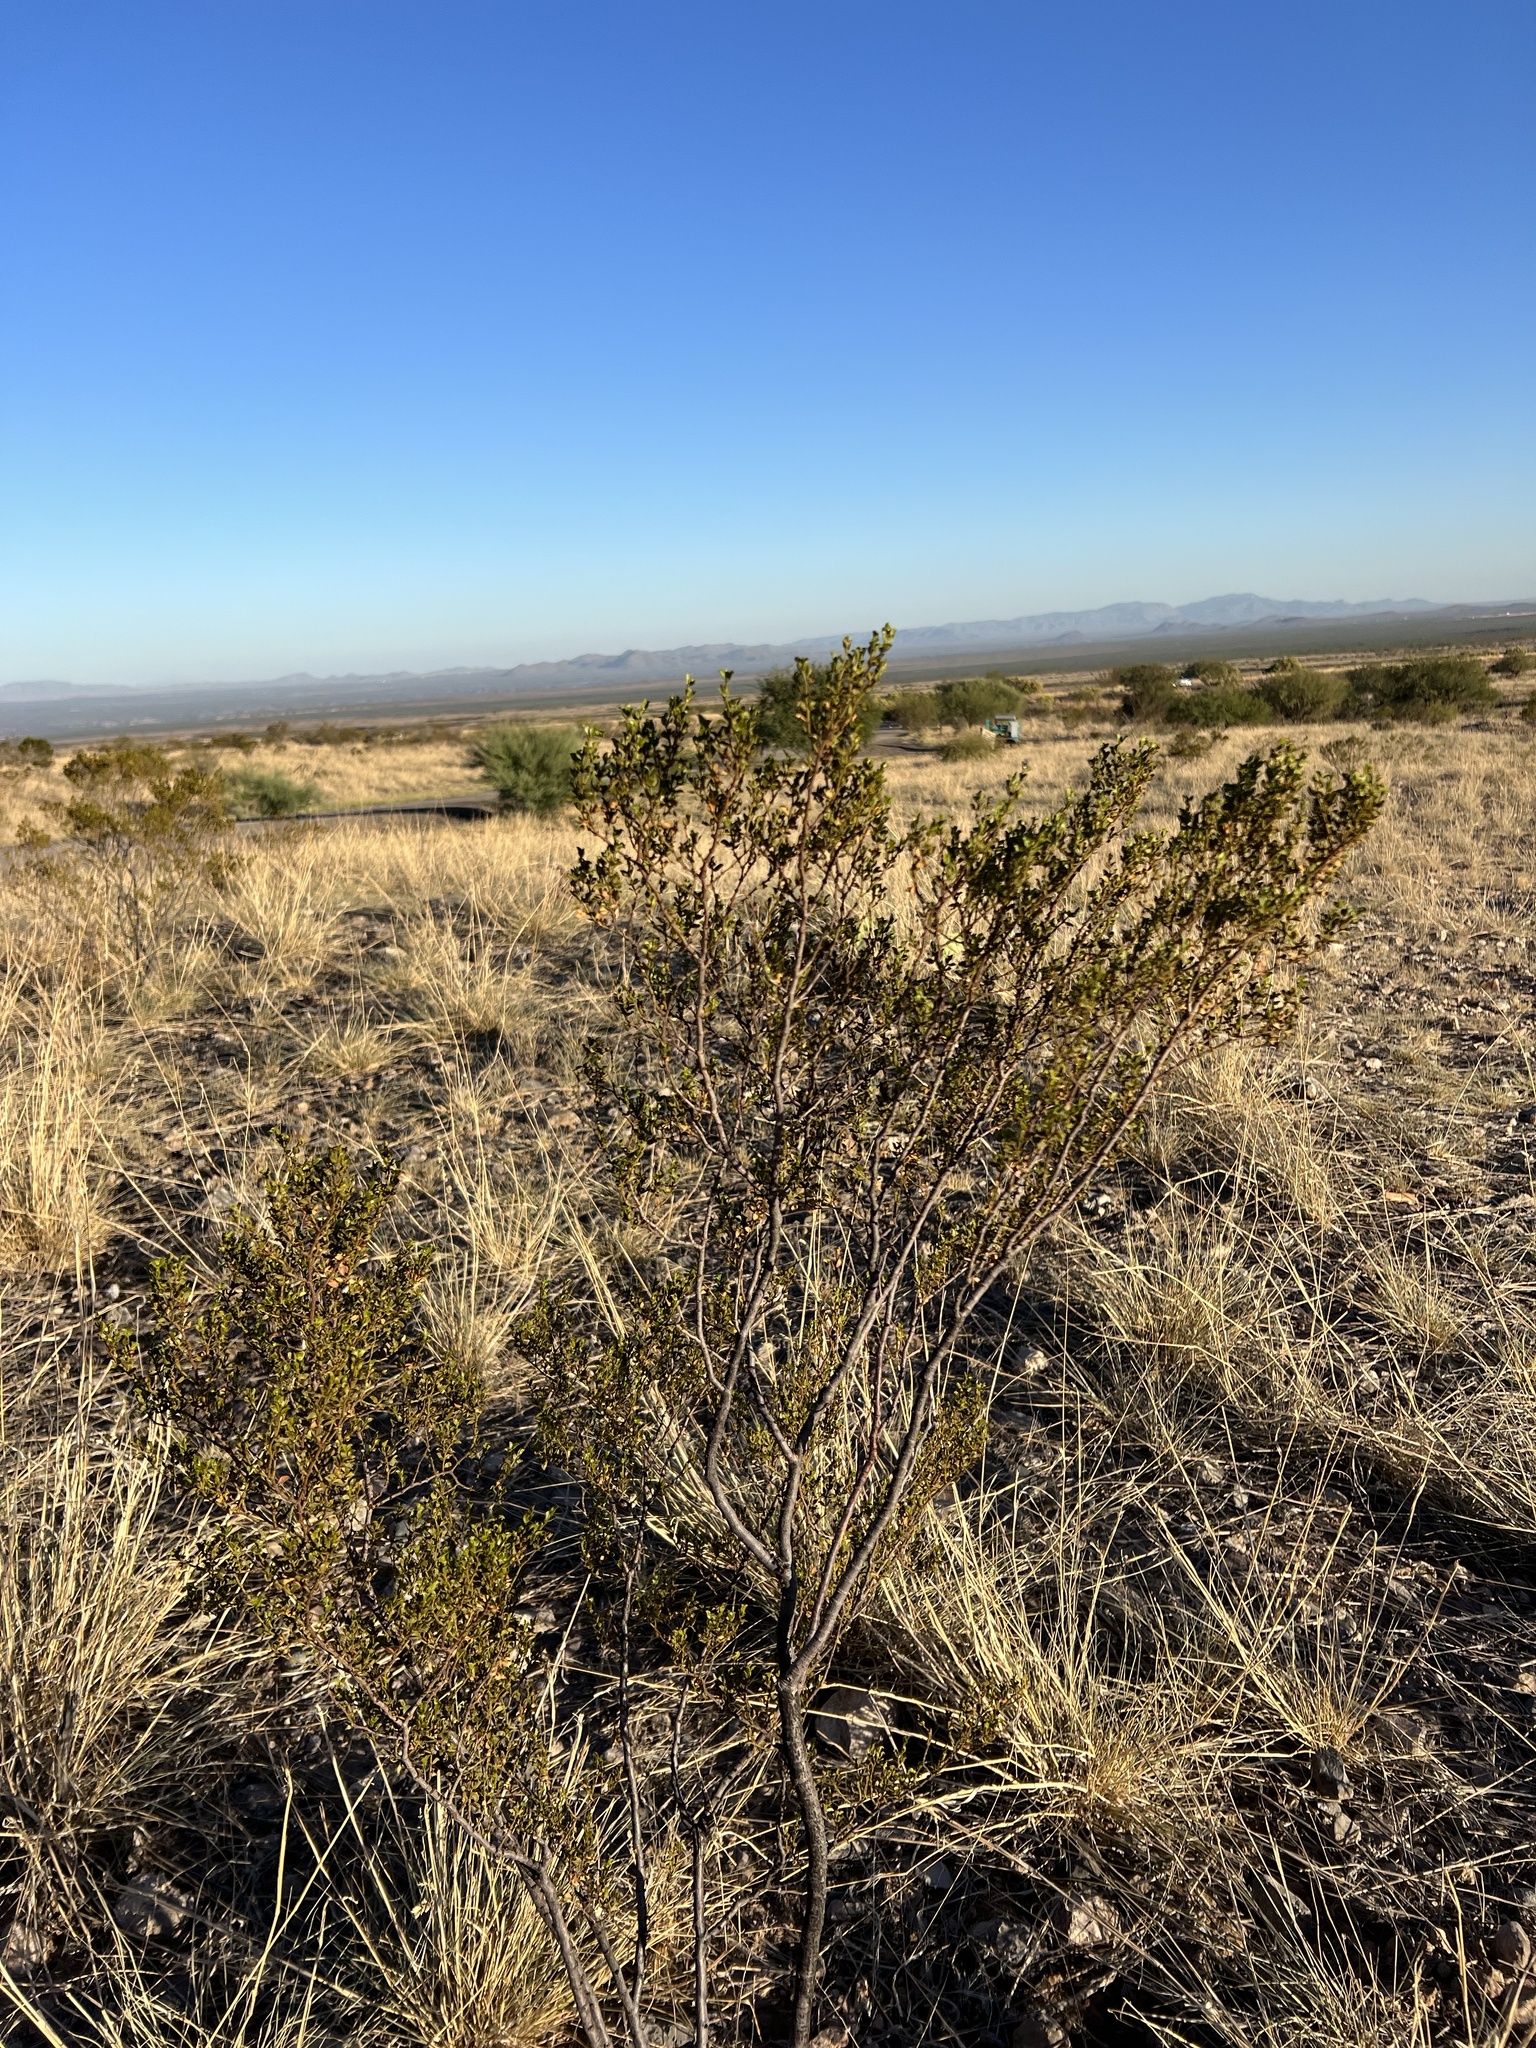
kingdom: Plantae
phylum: Tracheophyta
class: Magnoliopsida
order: Zygophyllales
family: Zygophyllaceae
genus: Larrea
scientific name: Larrea tridentata
